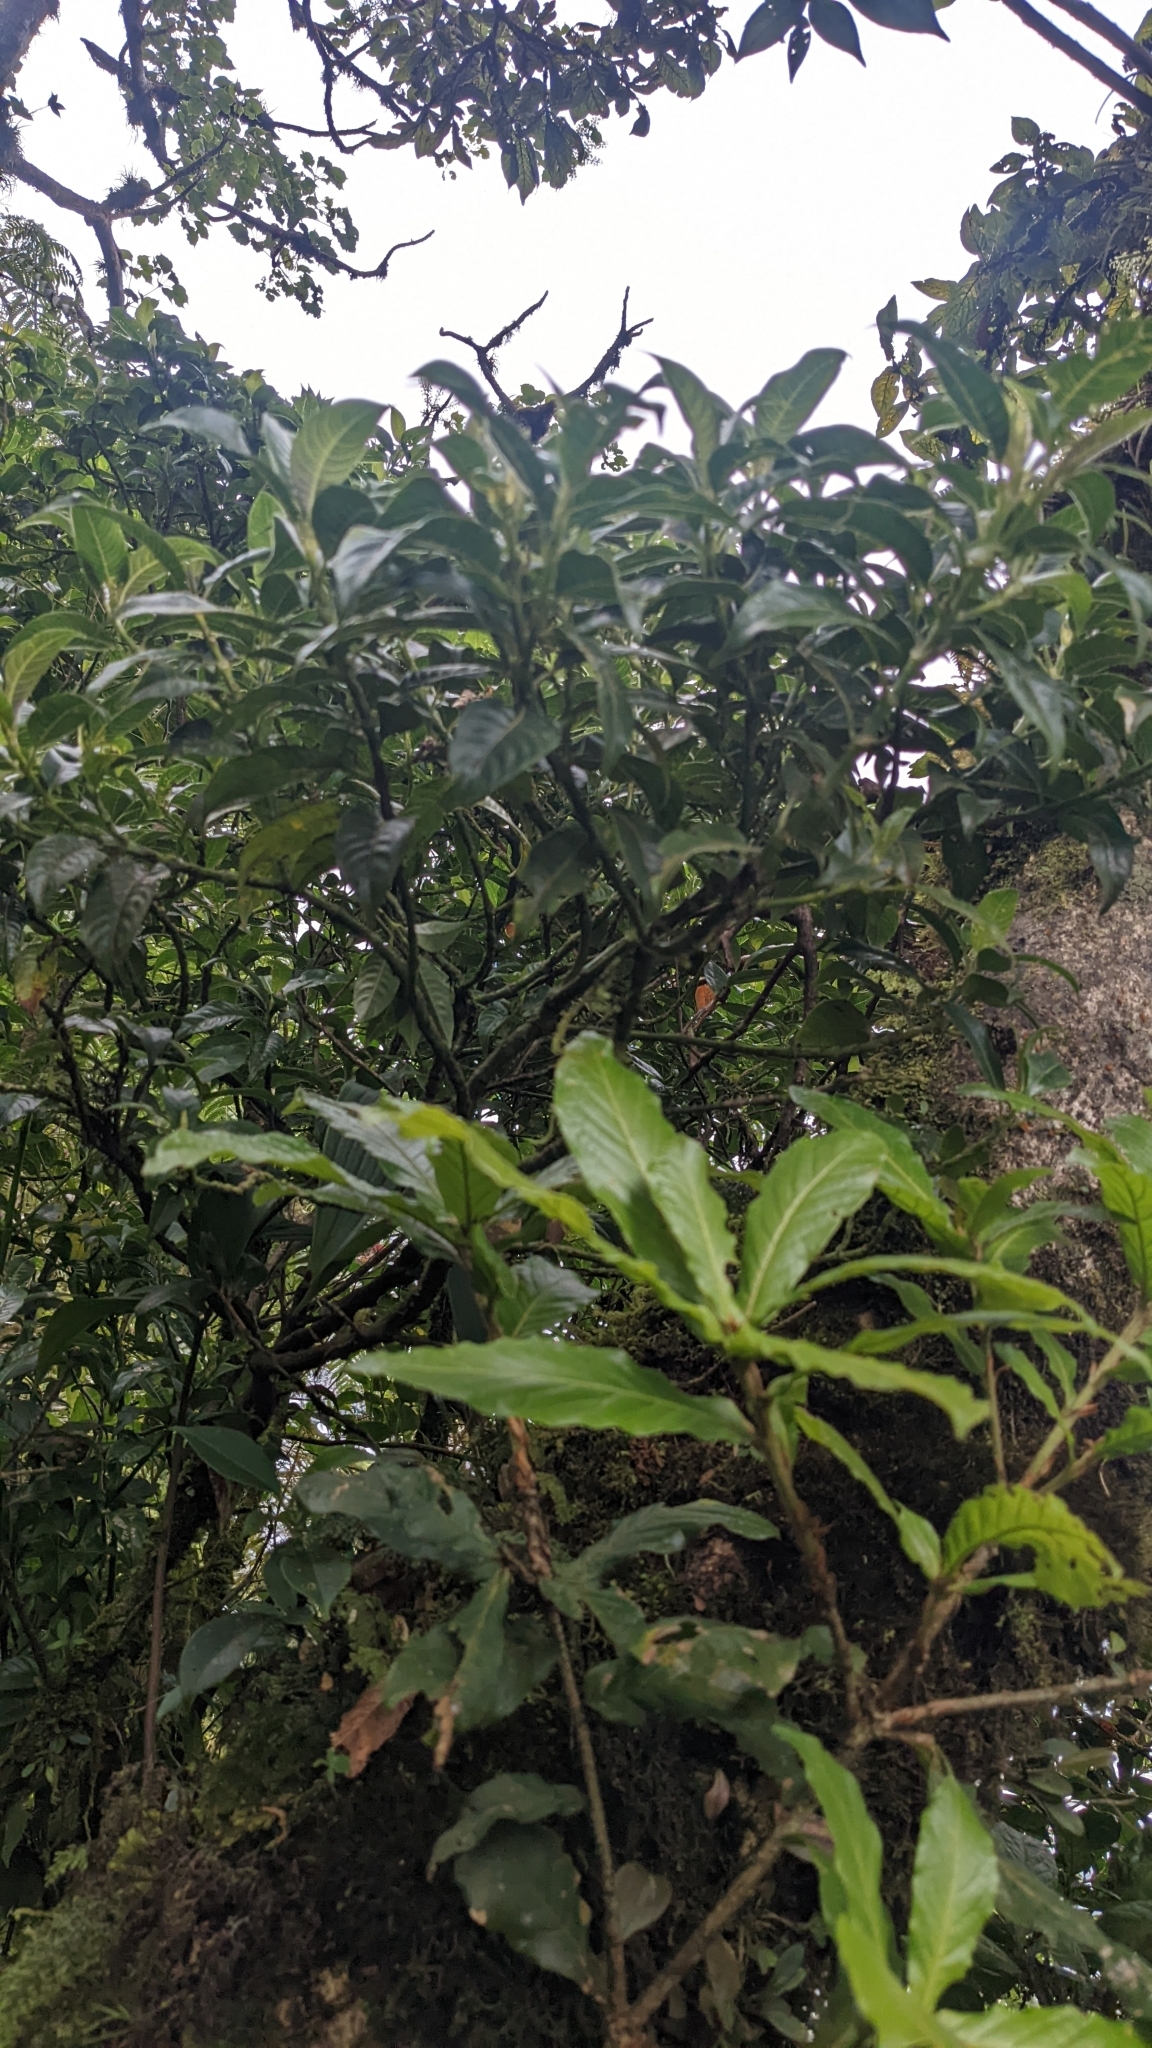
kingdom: Plantae
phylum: Tracheophyta
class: Magnoliopsida
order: Fagales
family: Fagaceae
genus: Quercus
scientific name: Quercus sapotifolia
